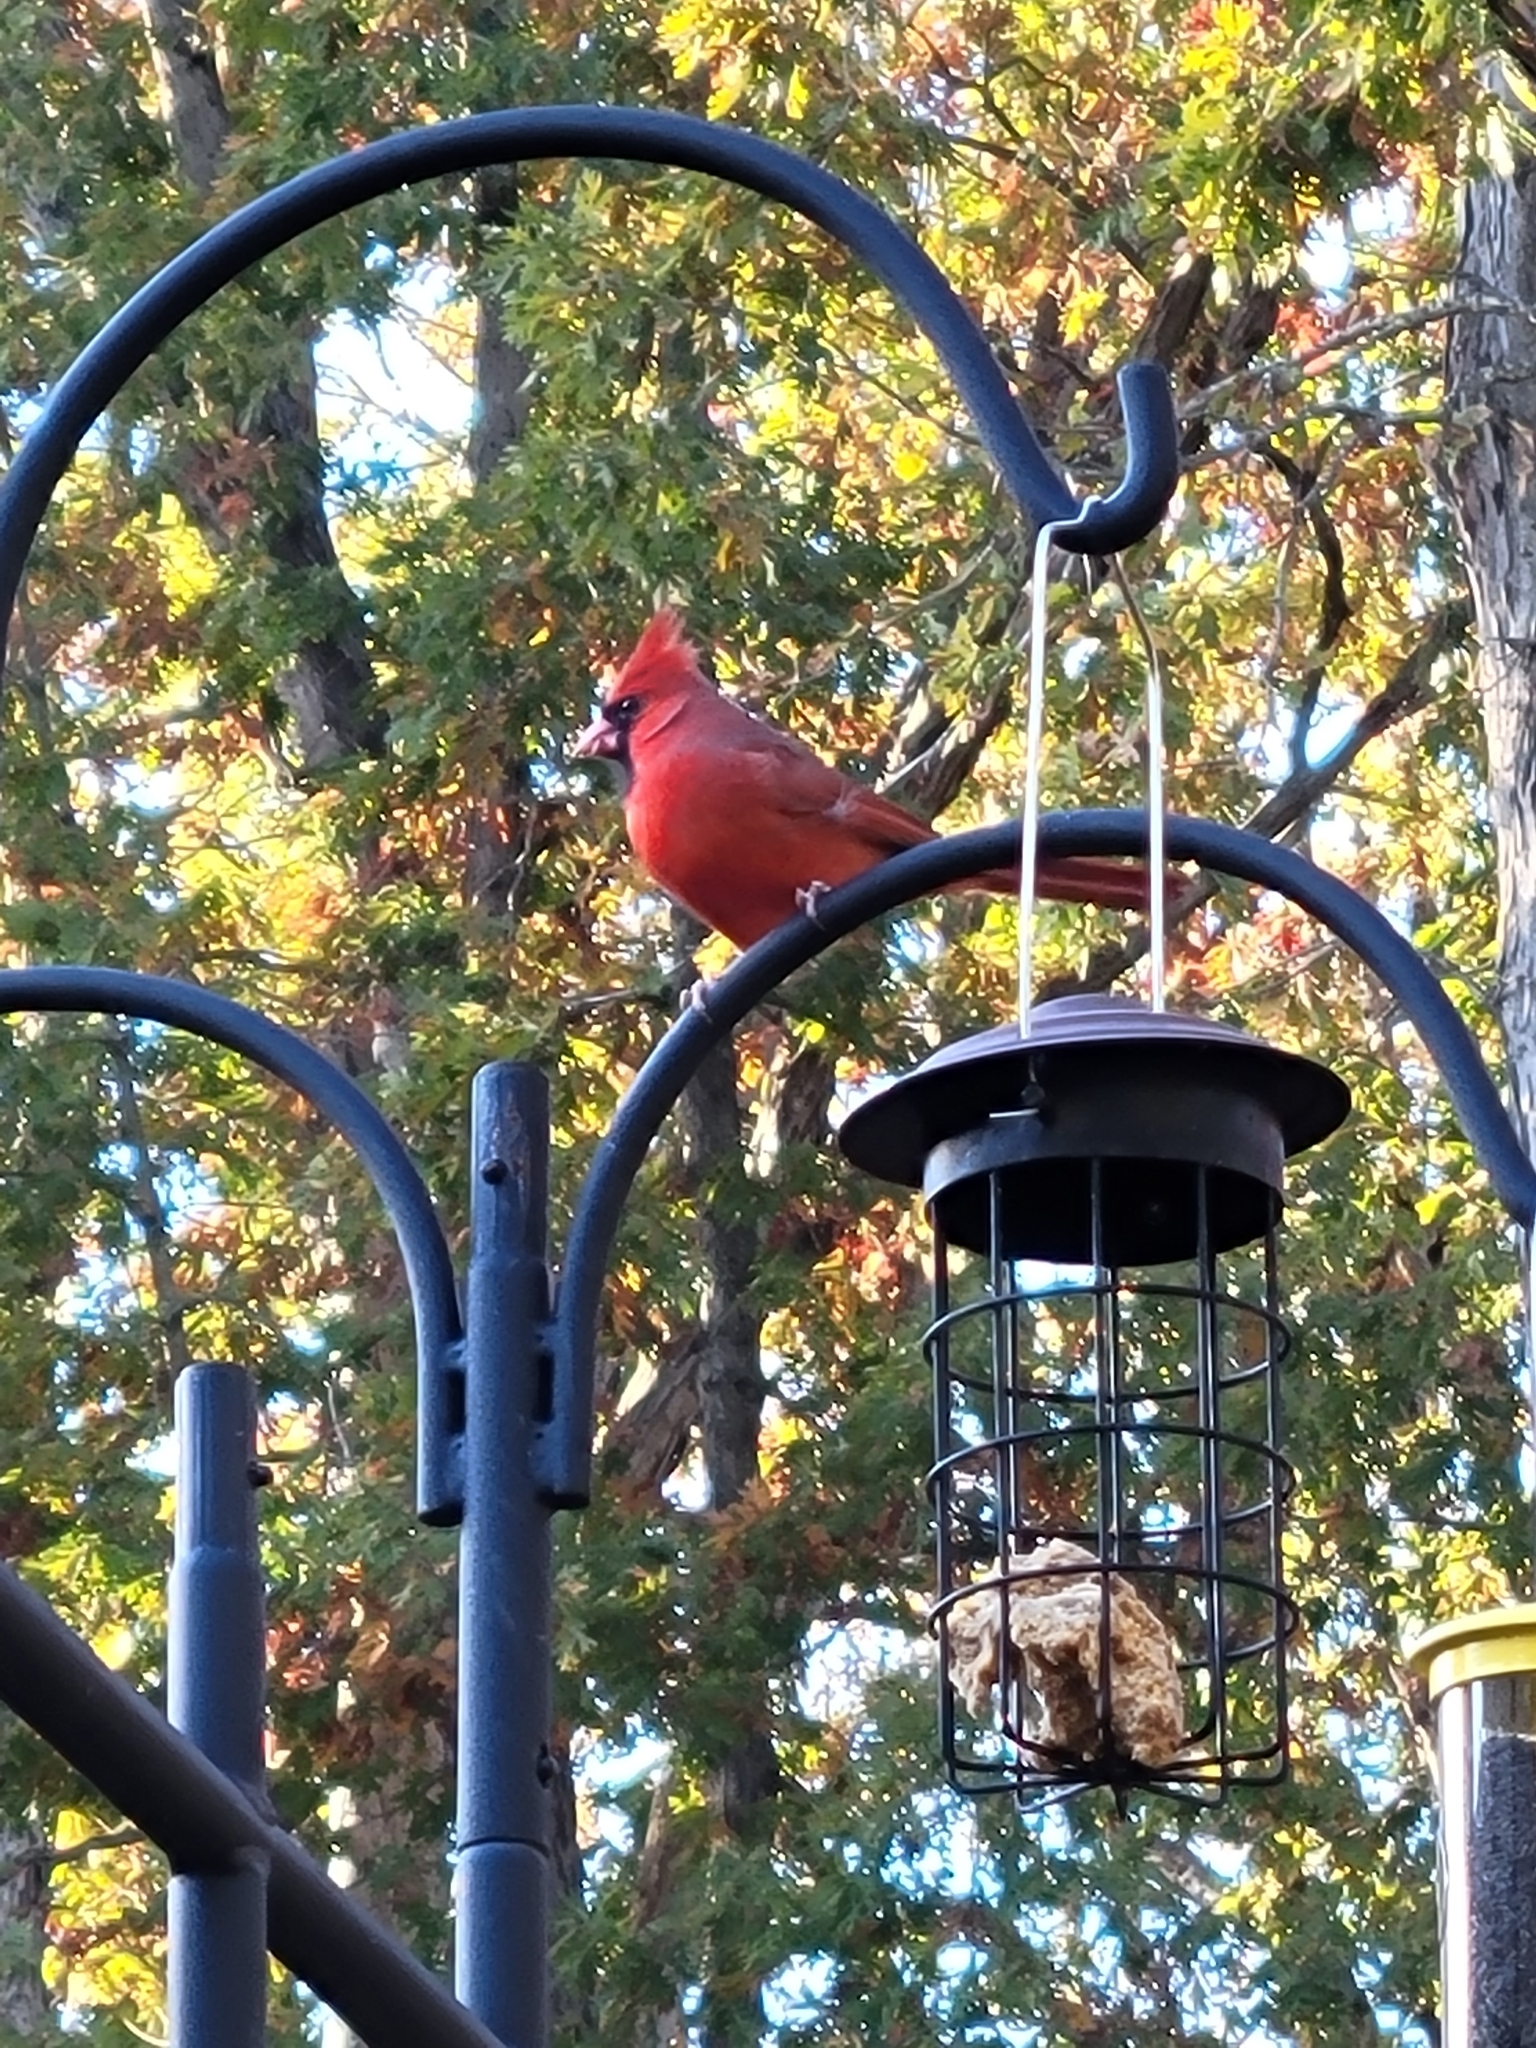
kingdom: Animalia
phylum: Chordata
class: Aves
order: Passeriformes
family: Cardinalidae
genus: Cardinalis
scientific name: Cardinalis cardinalis
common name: Northern cardinal
